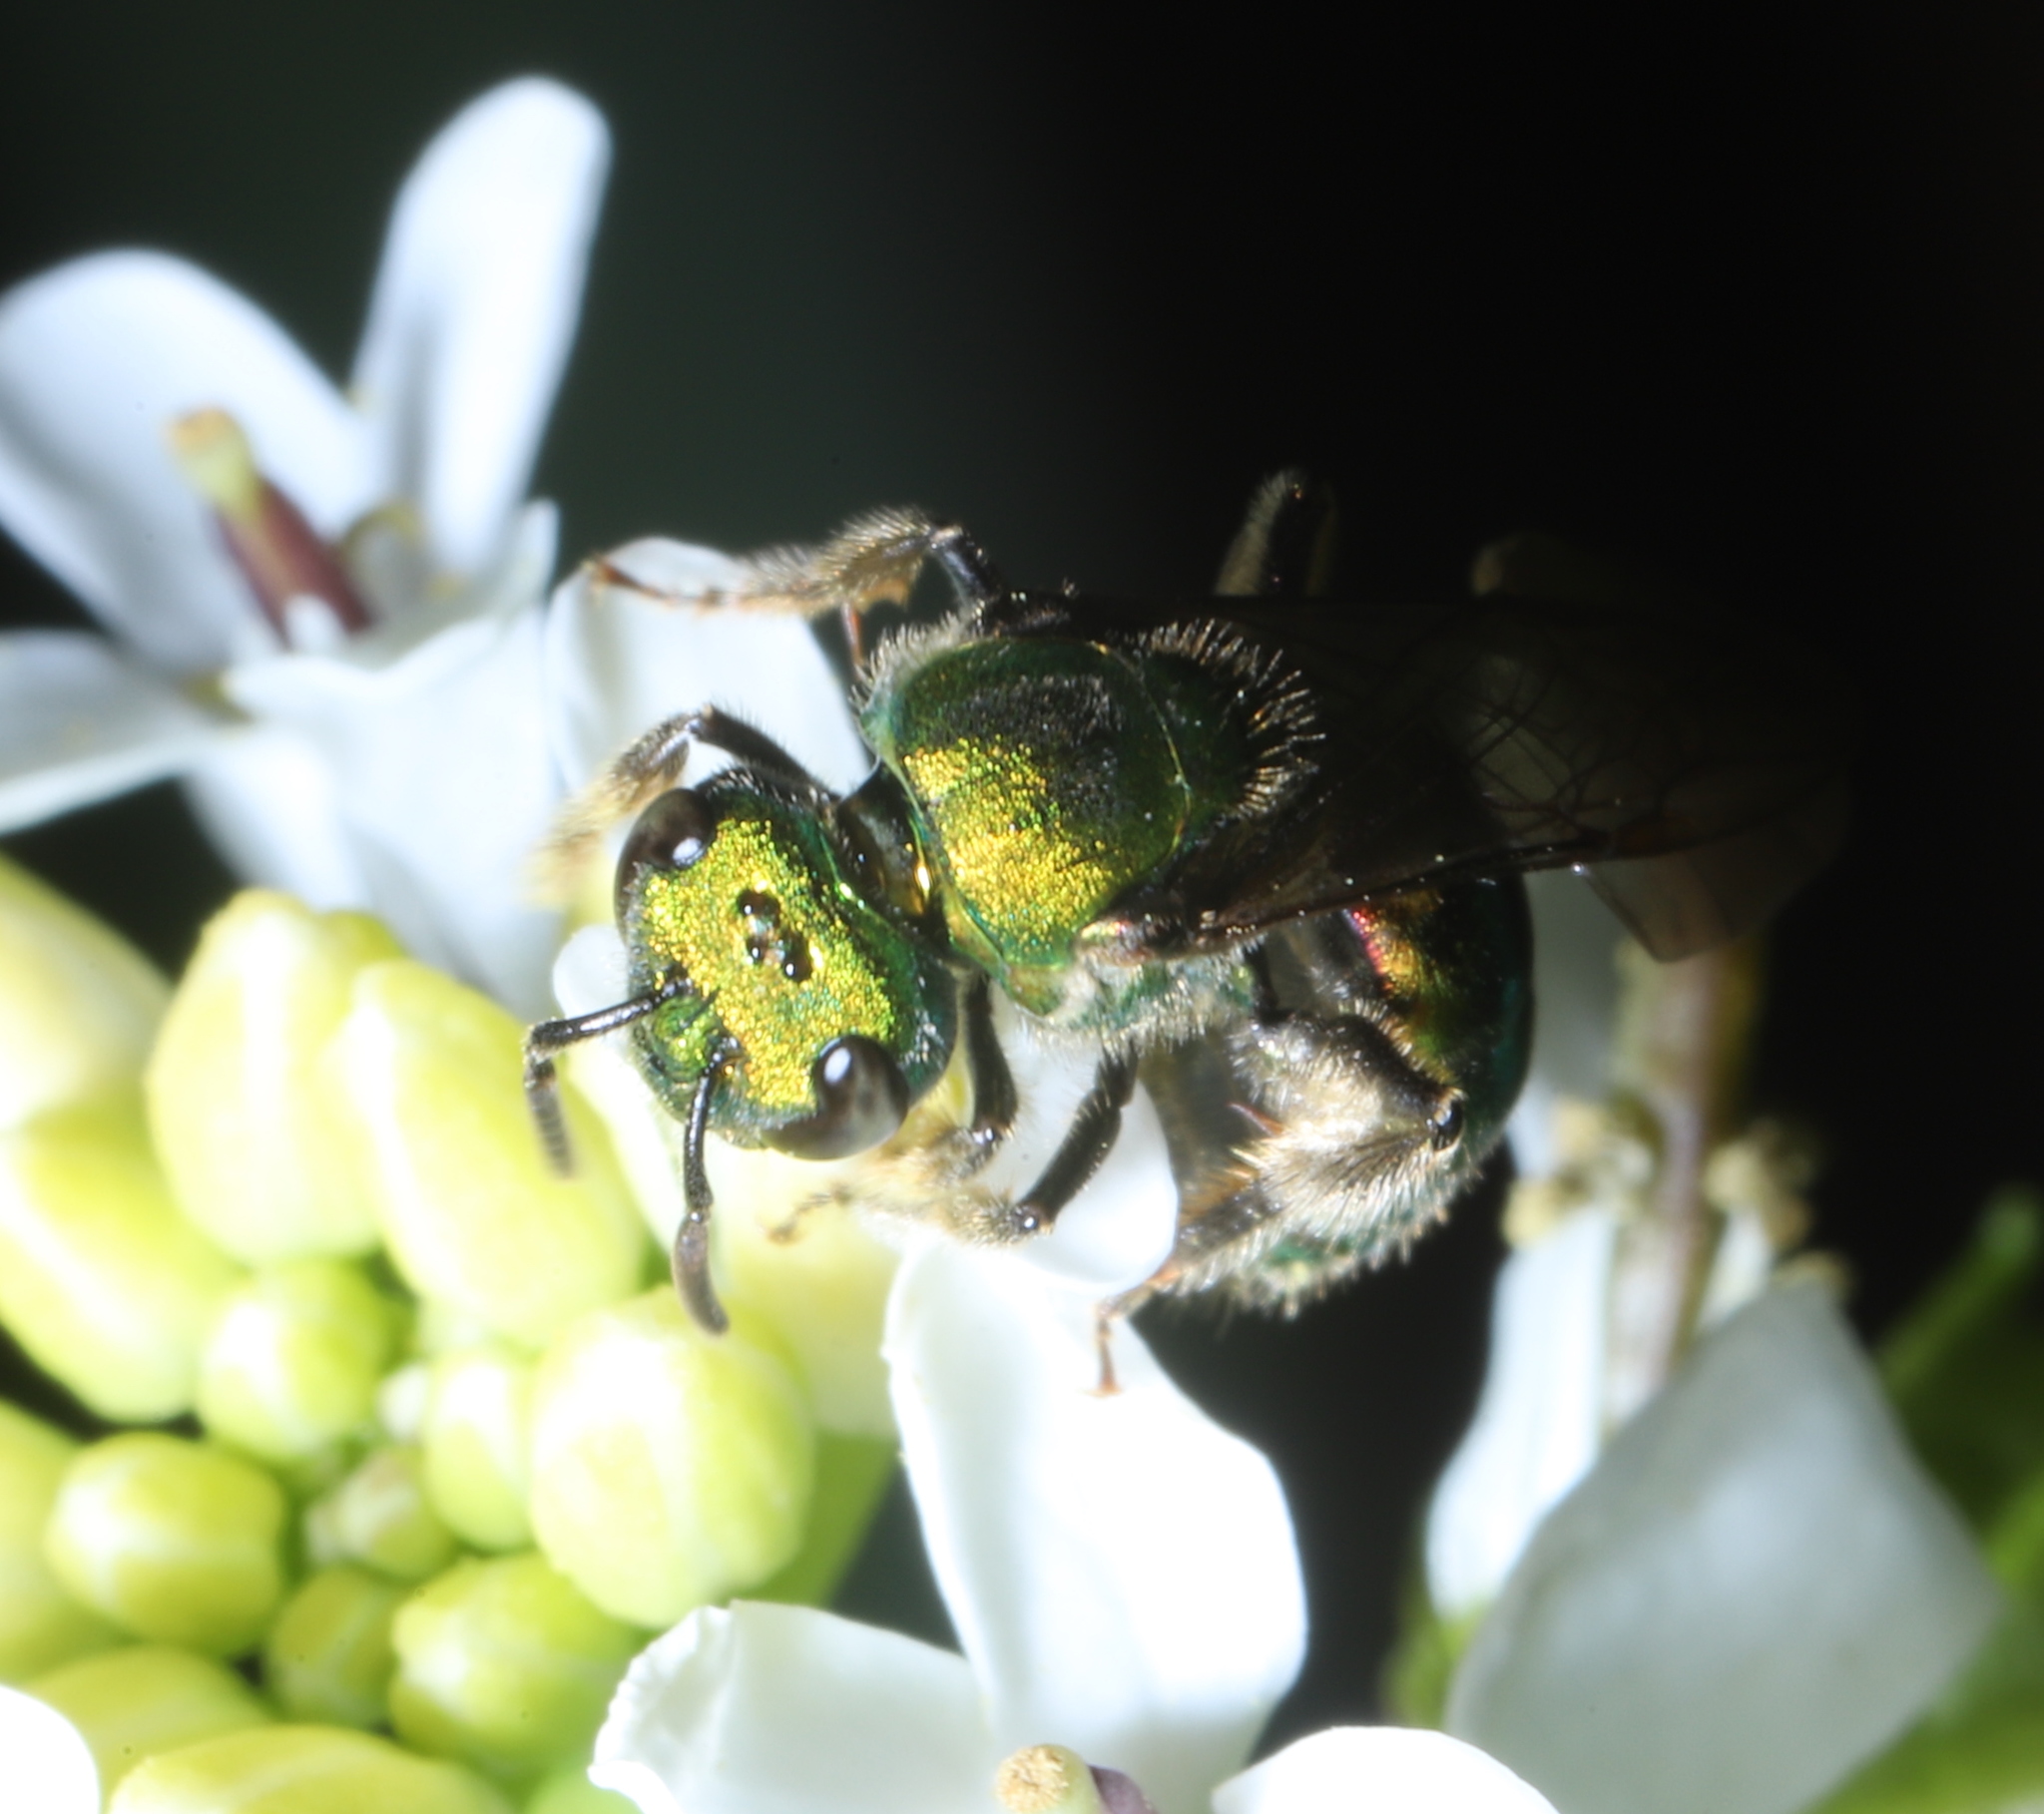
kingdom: Animalia
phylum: Arthropoda
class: Insecta
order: Hymenoptera
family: Halictidae
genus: Augochlora
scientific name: Augochlora pura
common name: Pure green sweat bee
